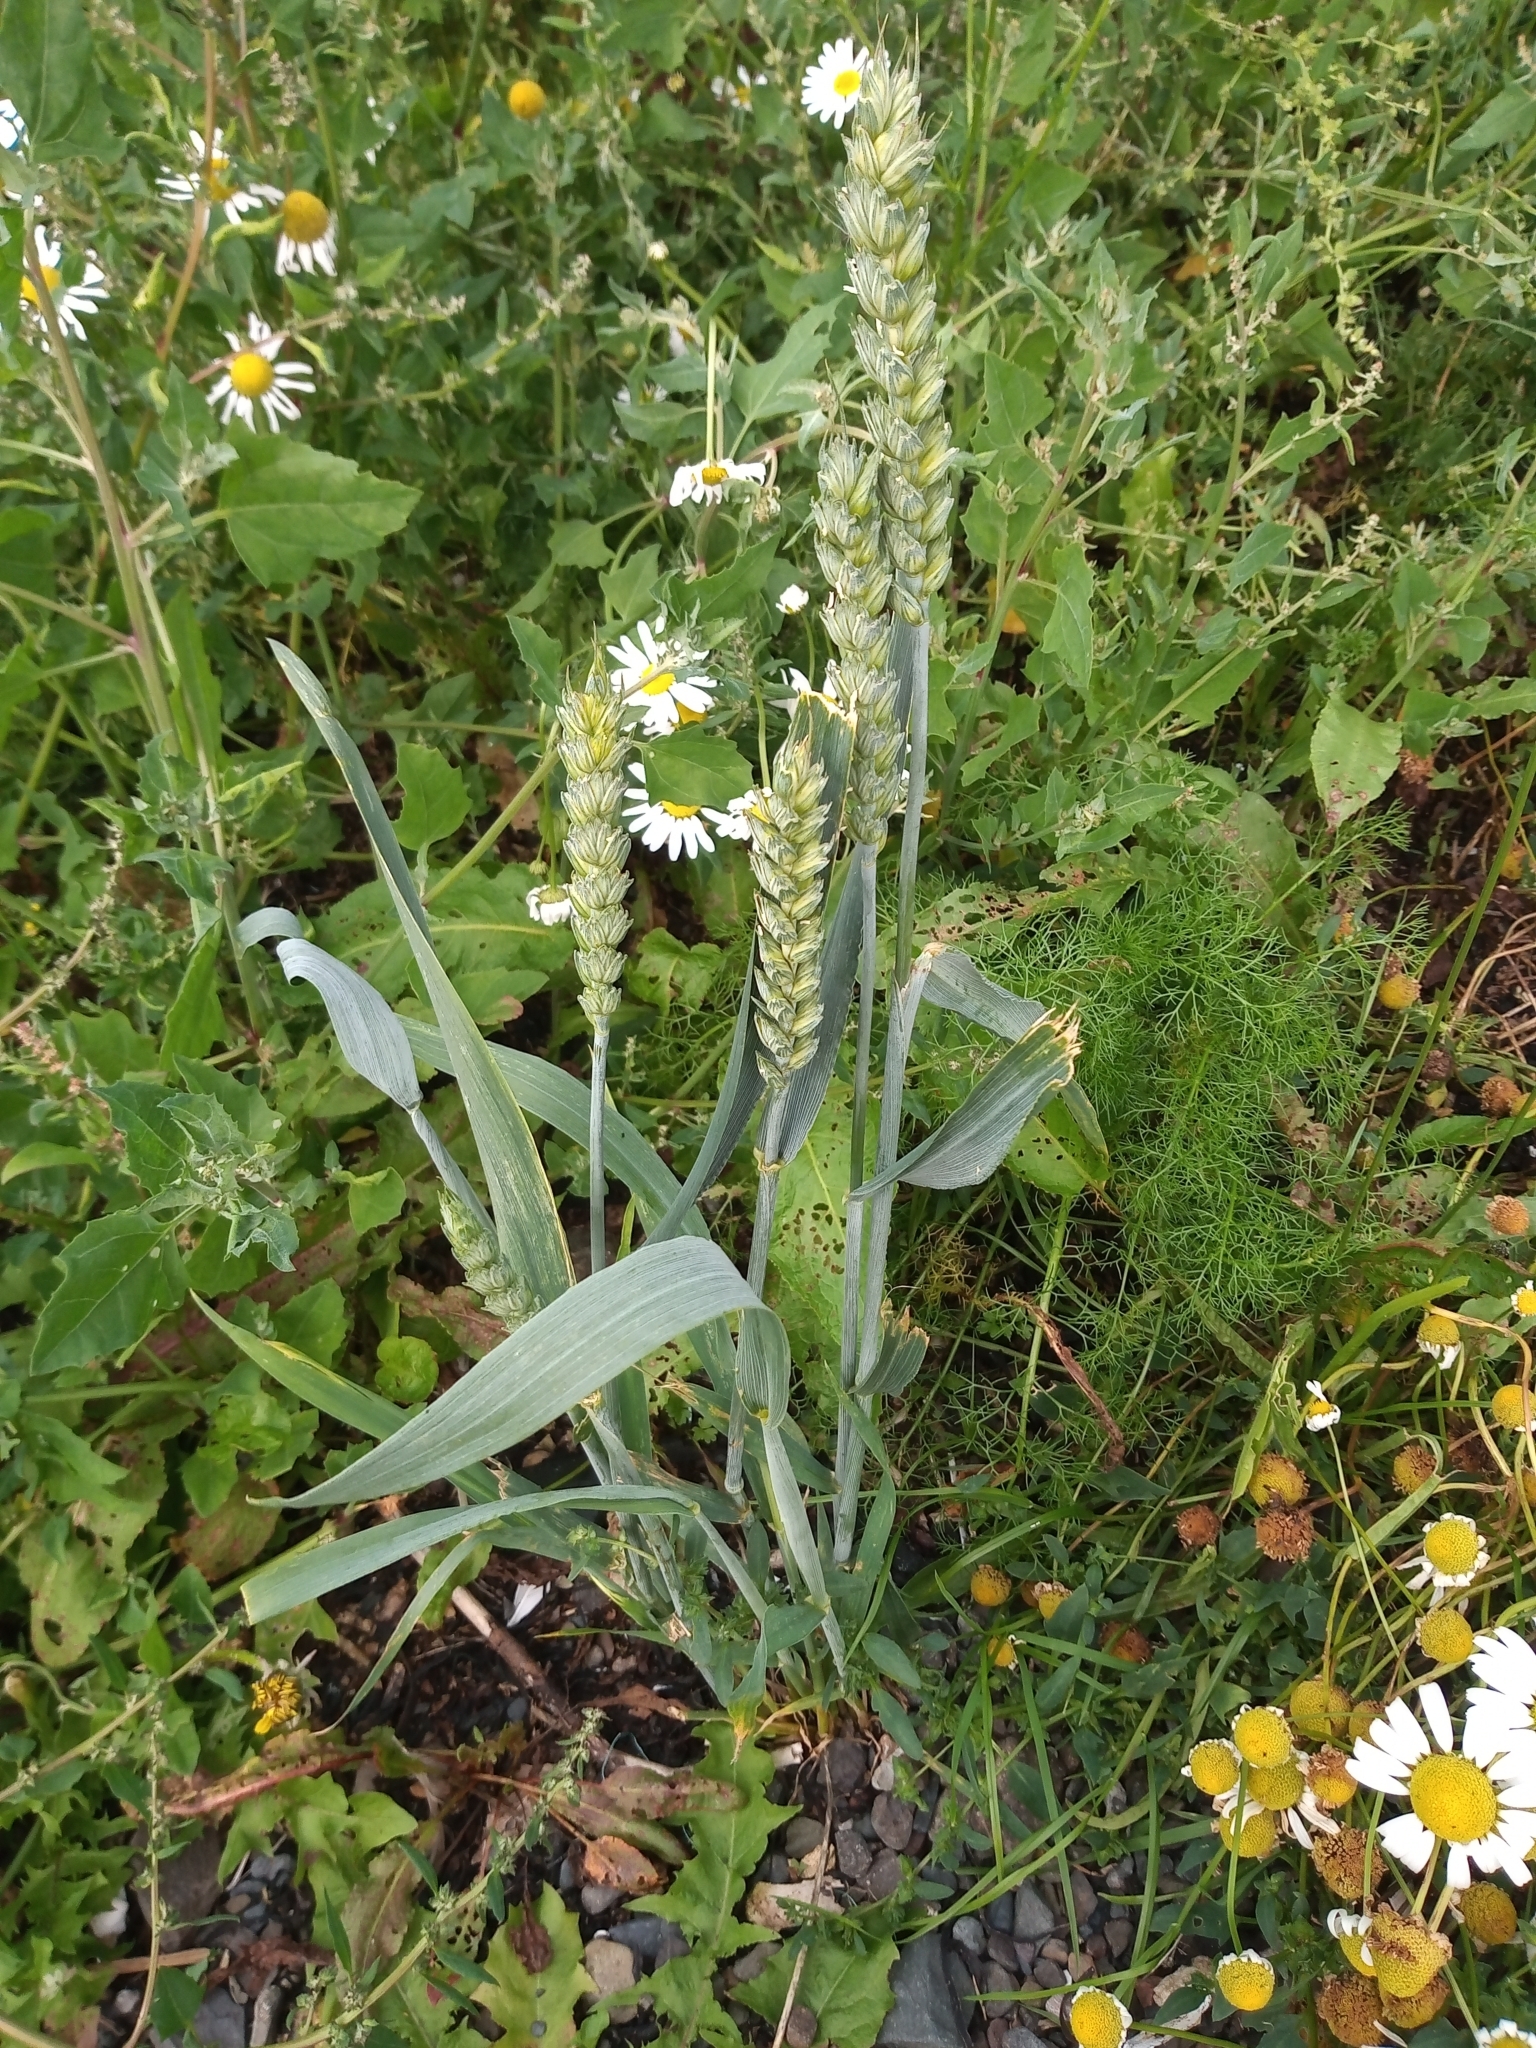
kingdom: Plantae
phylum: Tracheophyta
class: Liliopsida
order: Poales
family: Poaceae
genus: Triticum
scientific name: Triticum aestivum
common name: Common wheat
